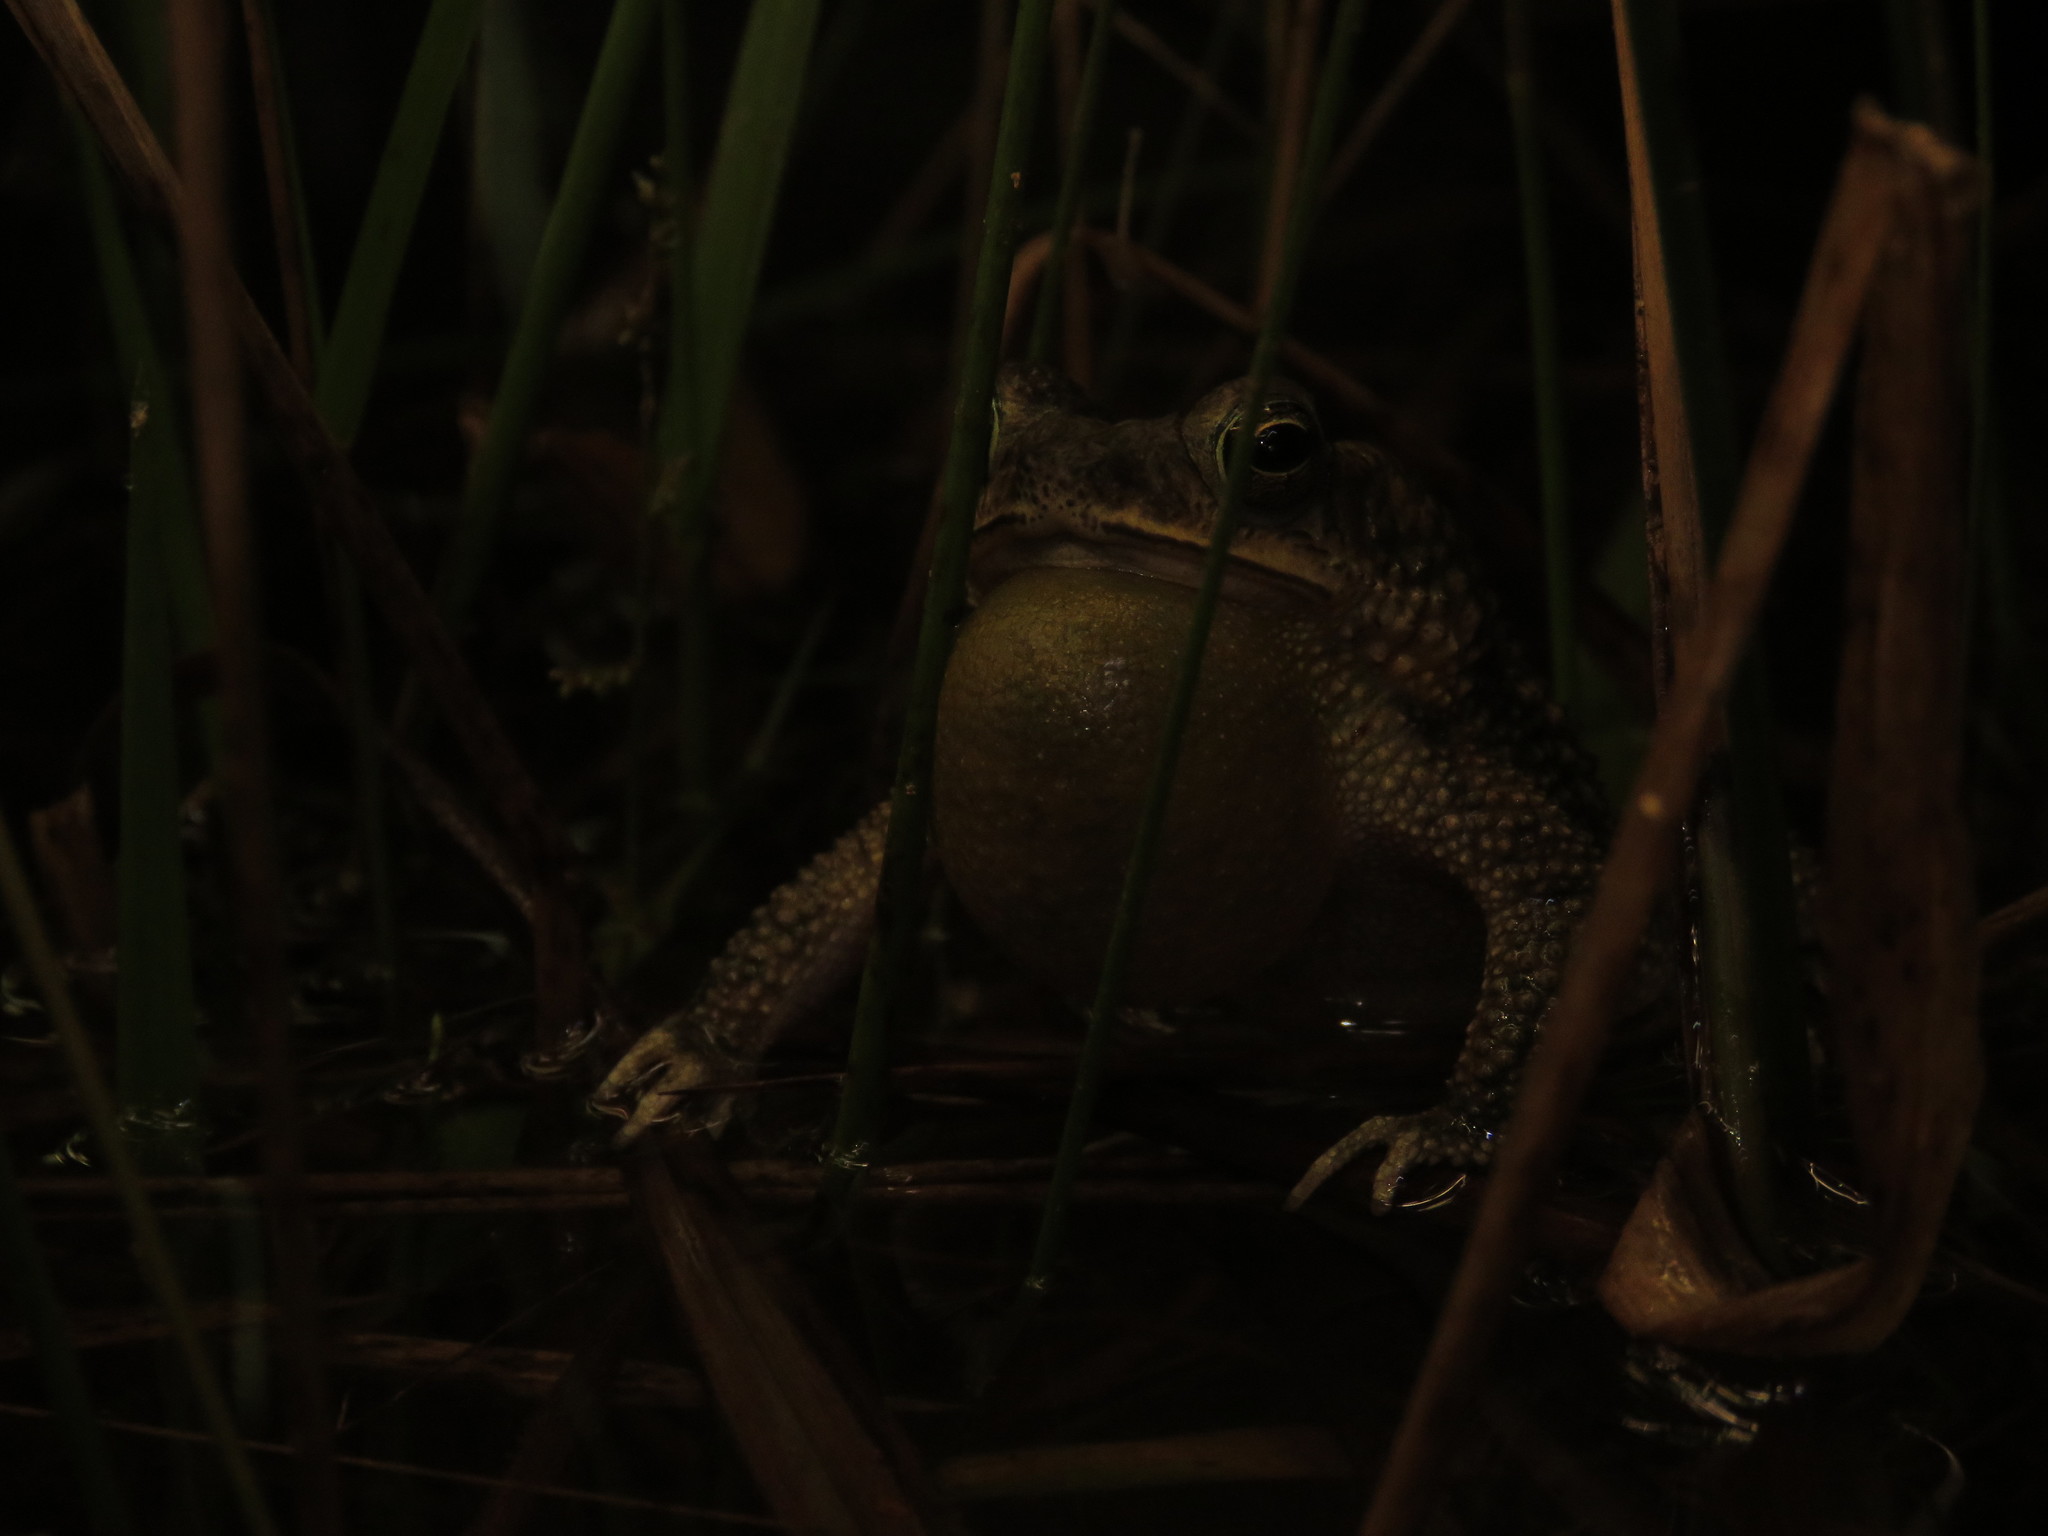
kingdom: Animalia
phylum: Chordata
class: Amphibia
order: Anura
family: Bufonidae
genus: Rhinella
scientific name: Rhinella major
